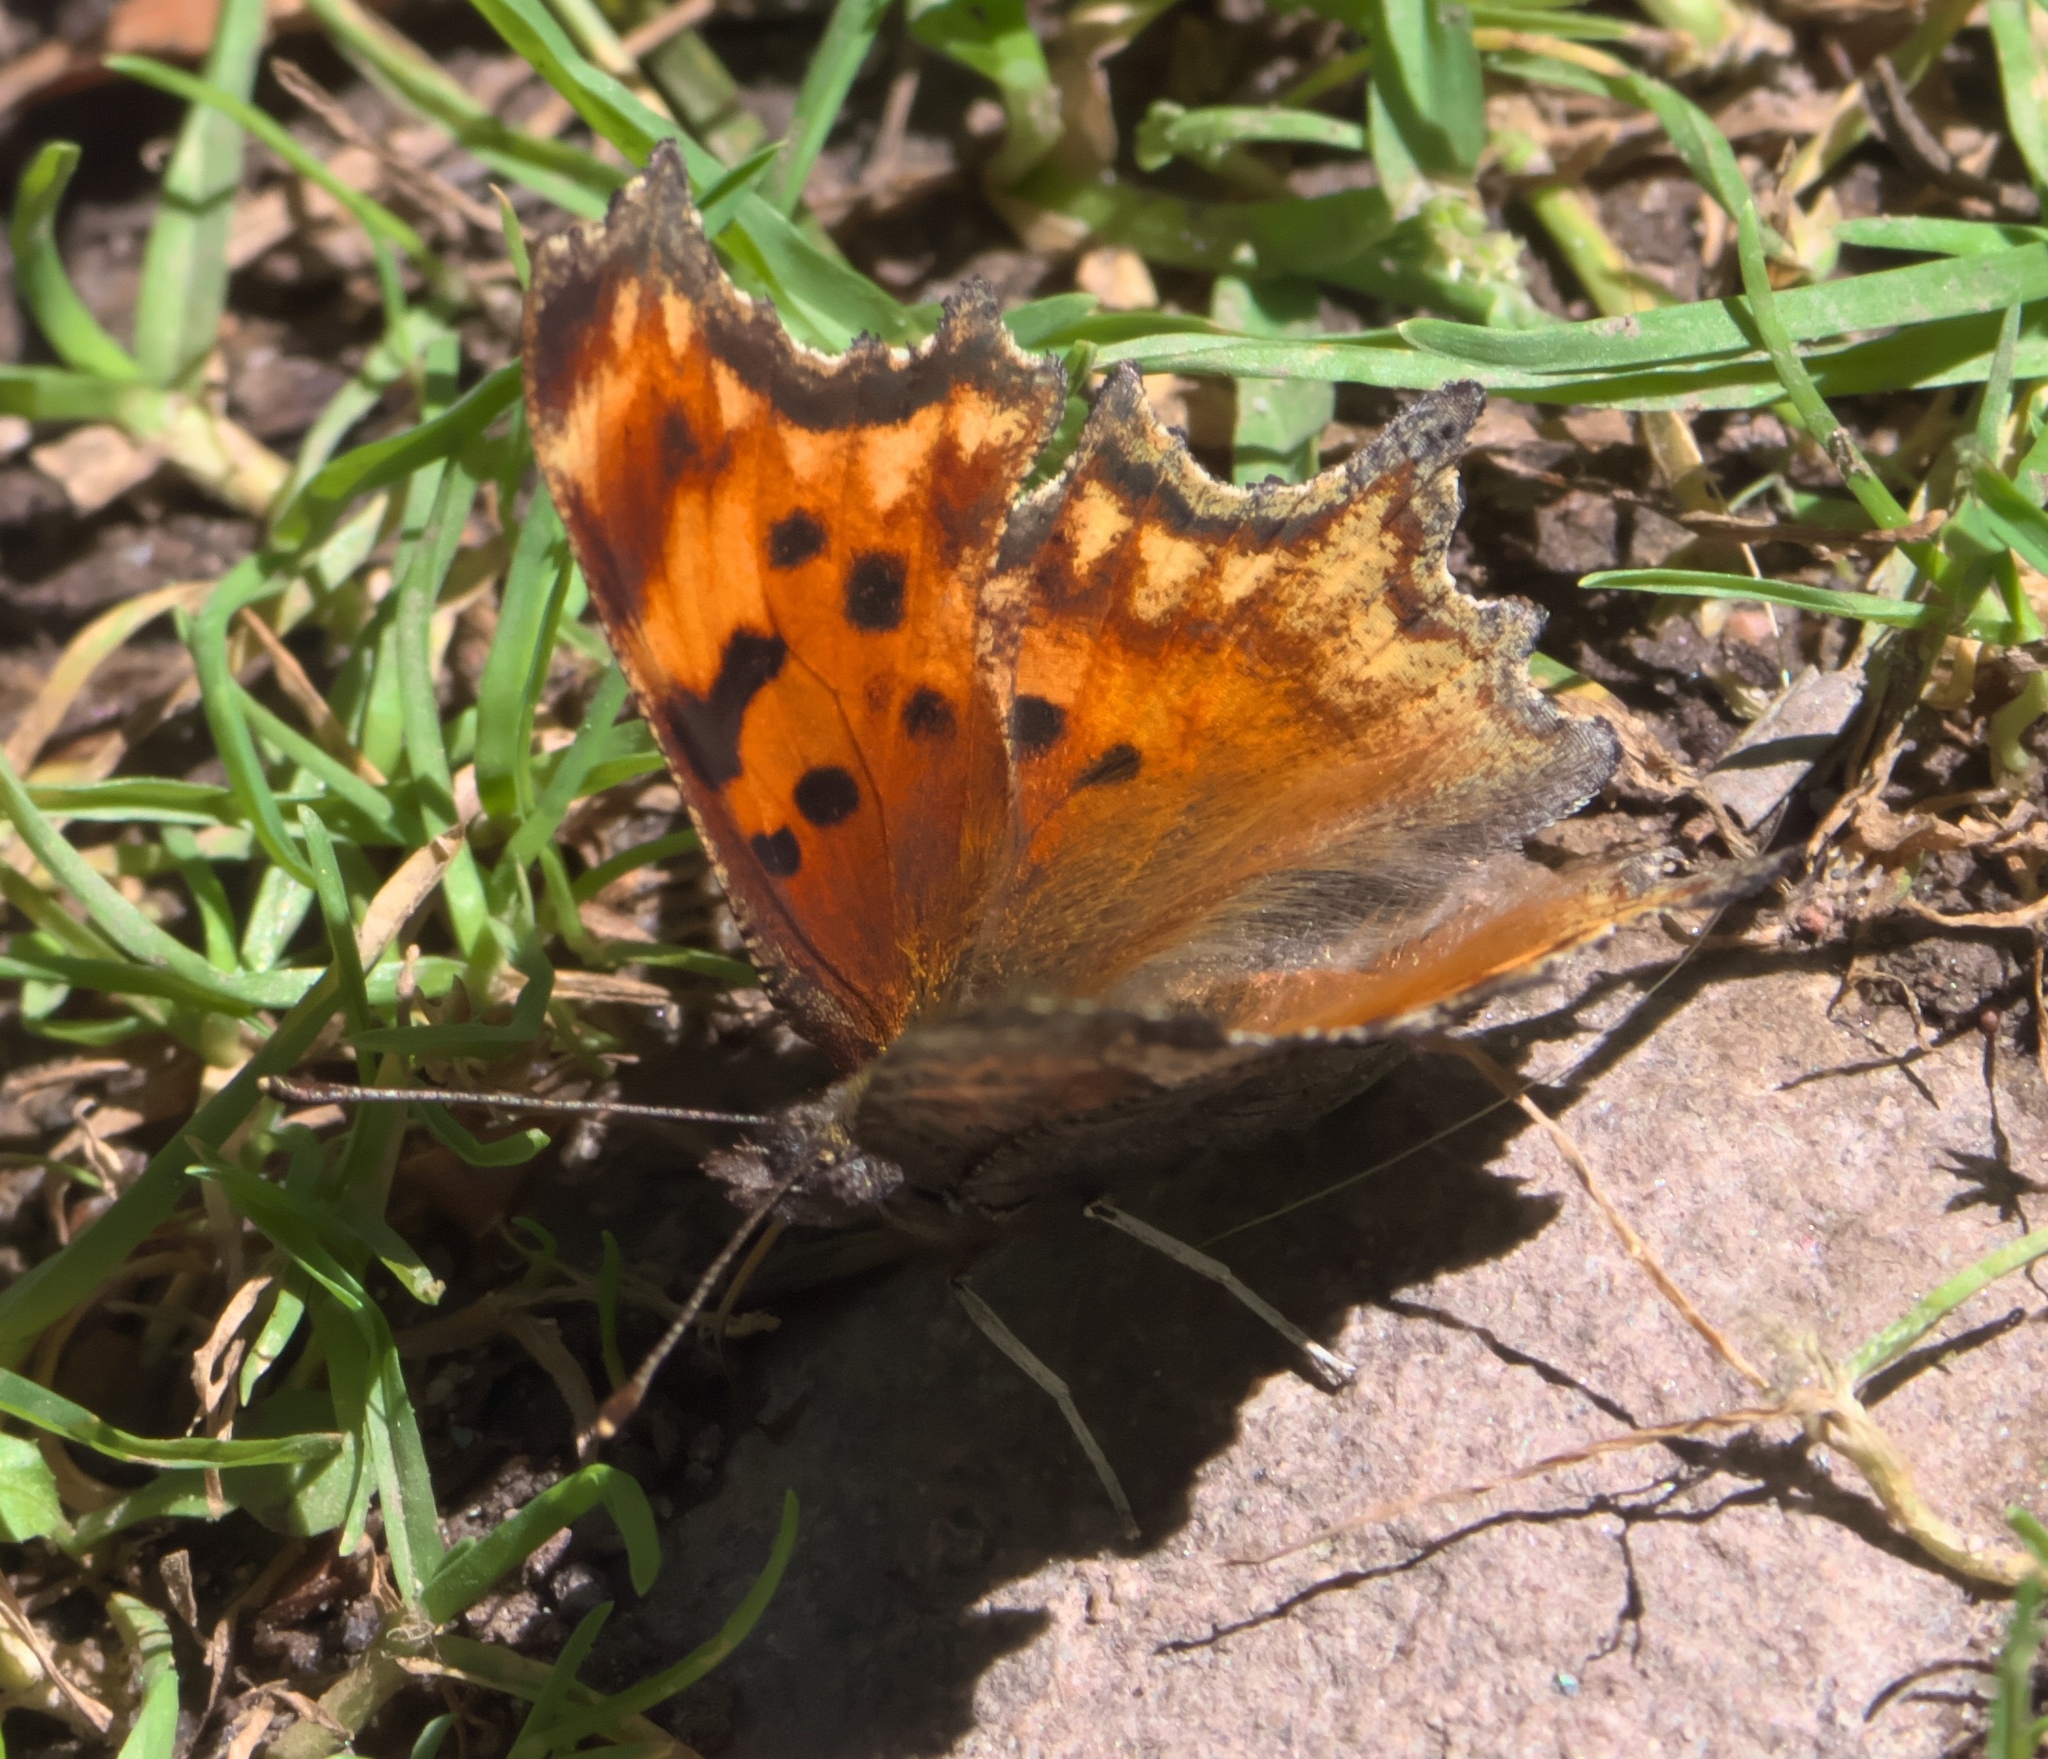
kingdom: Animalia
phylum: Arthropoda
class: Insecta
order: Lepidoptera
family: Nymphalidae
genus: Polygonia
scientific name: Polygonia gracilis
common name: Hoary comma
